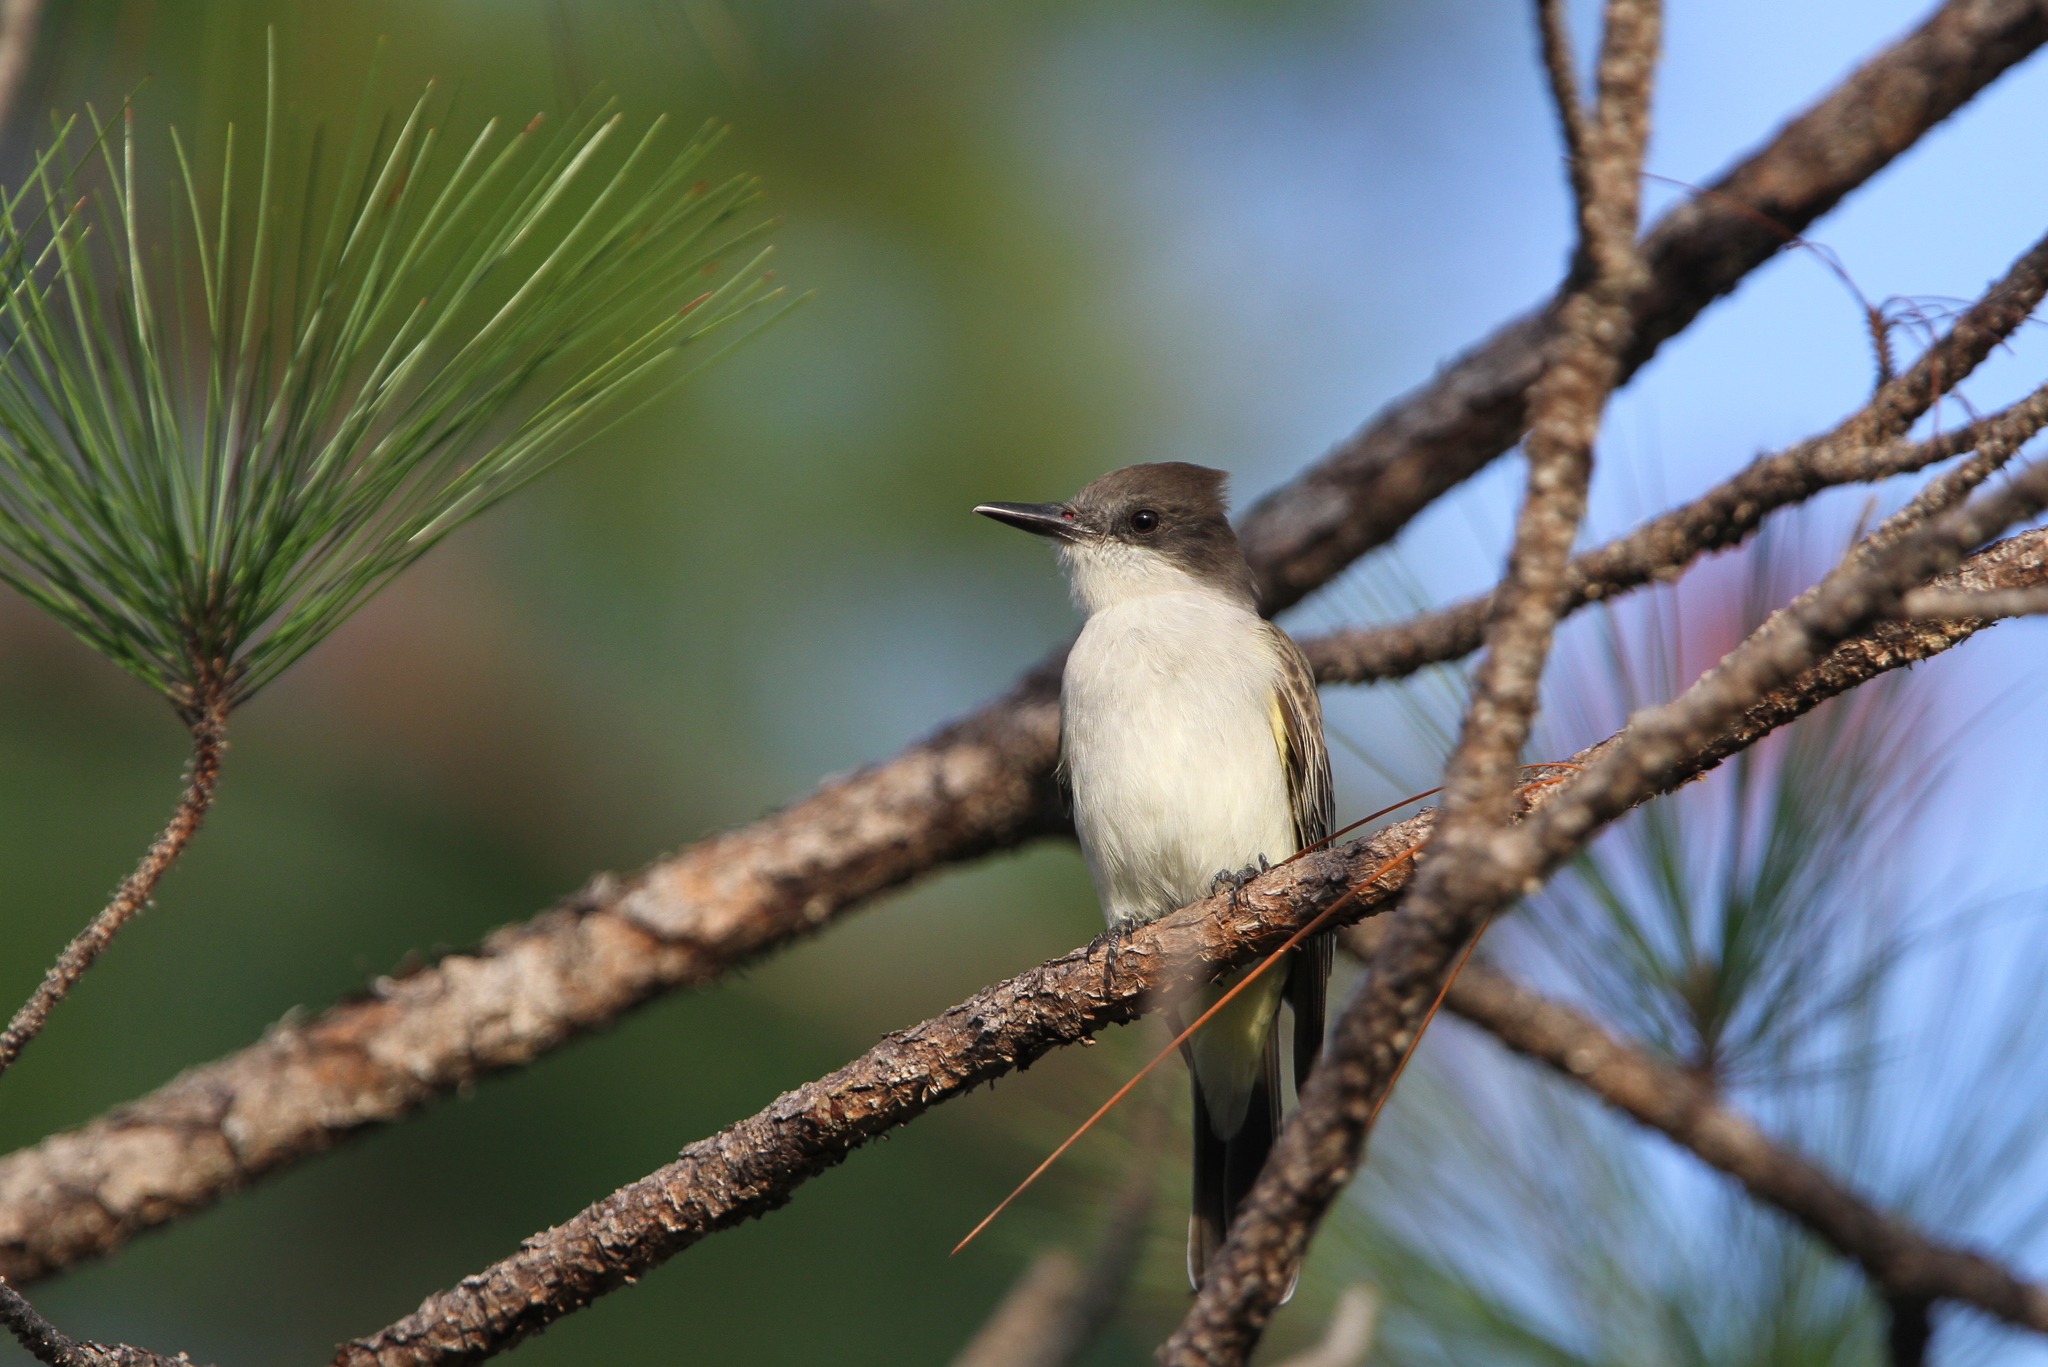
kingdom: Animalia
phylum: Chordata
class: Aves
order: Passeriformes
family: Tyrannidae
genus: Tyrannus
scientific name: Tyrannus caudifasciatus
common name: Loggerhead kingbird
